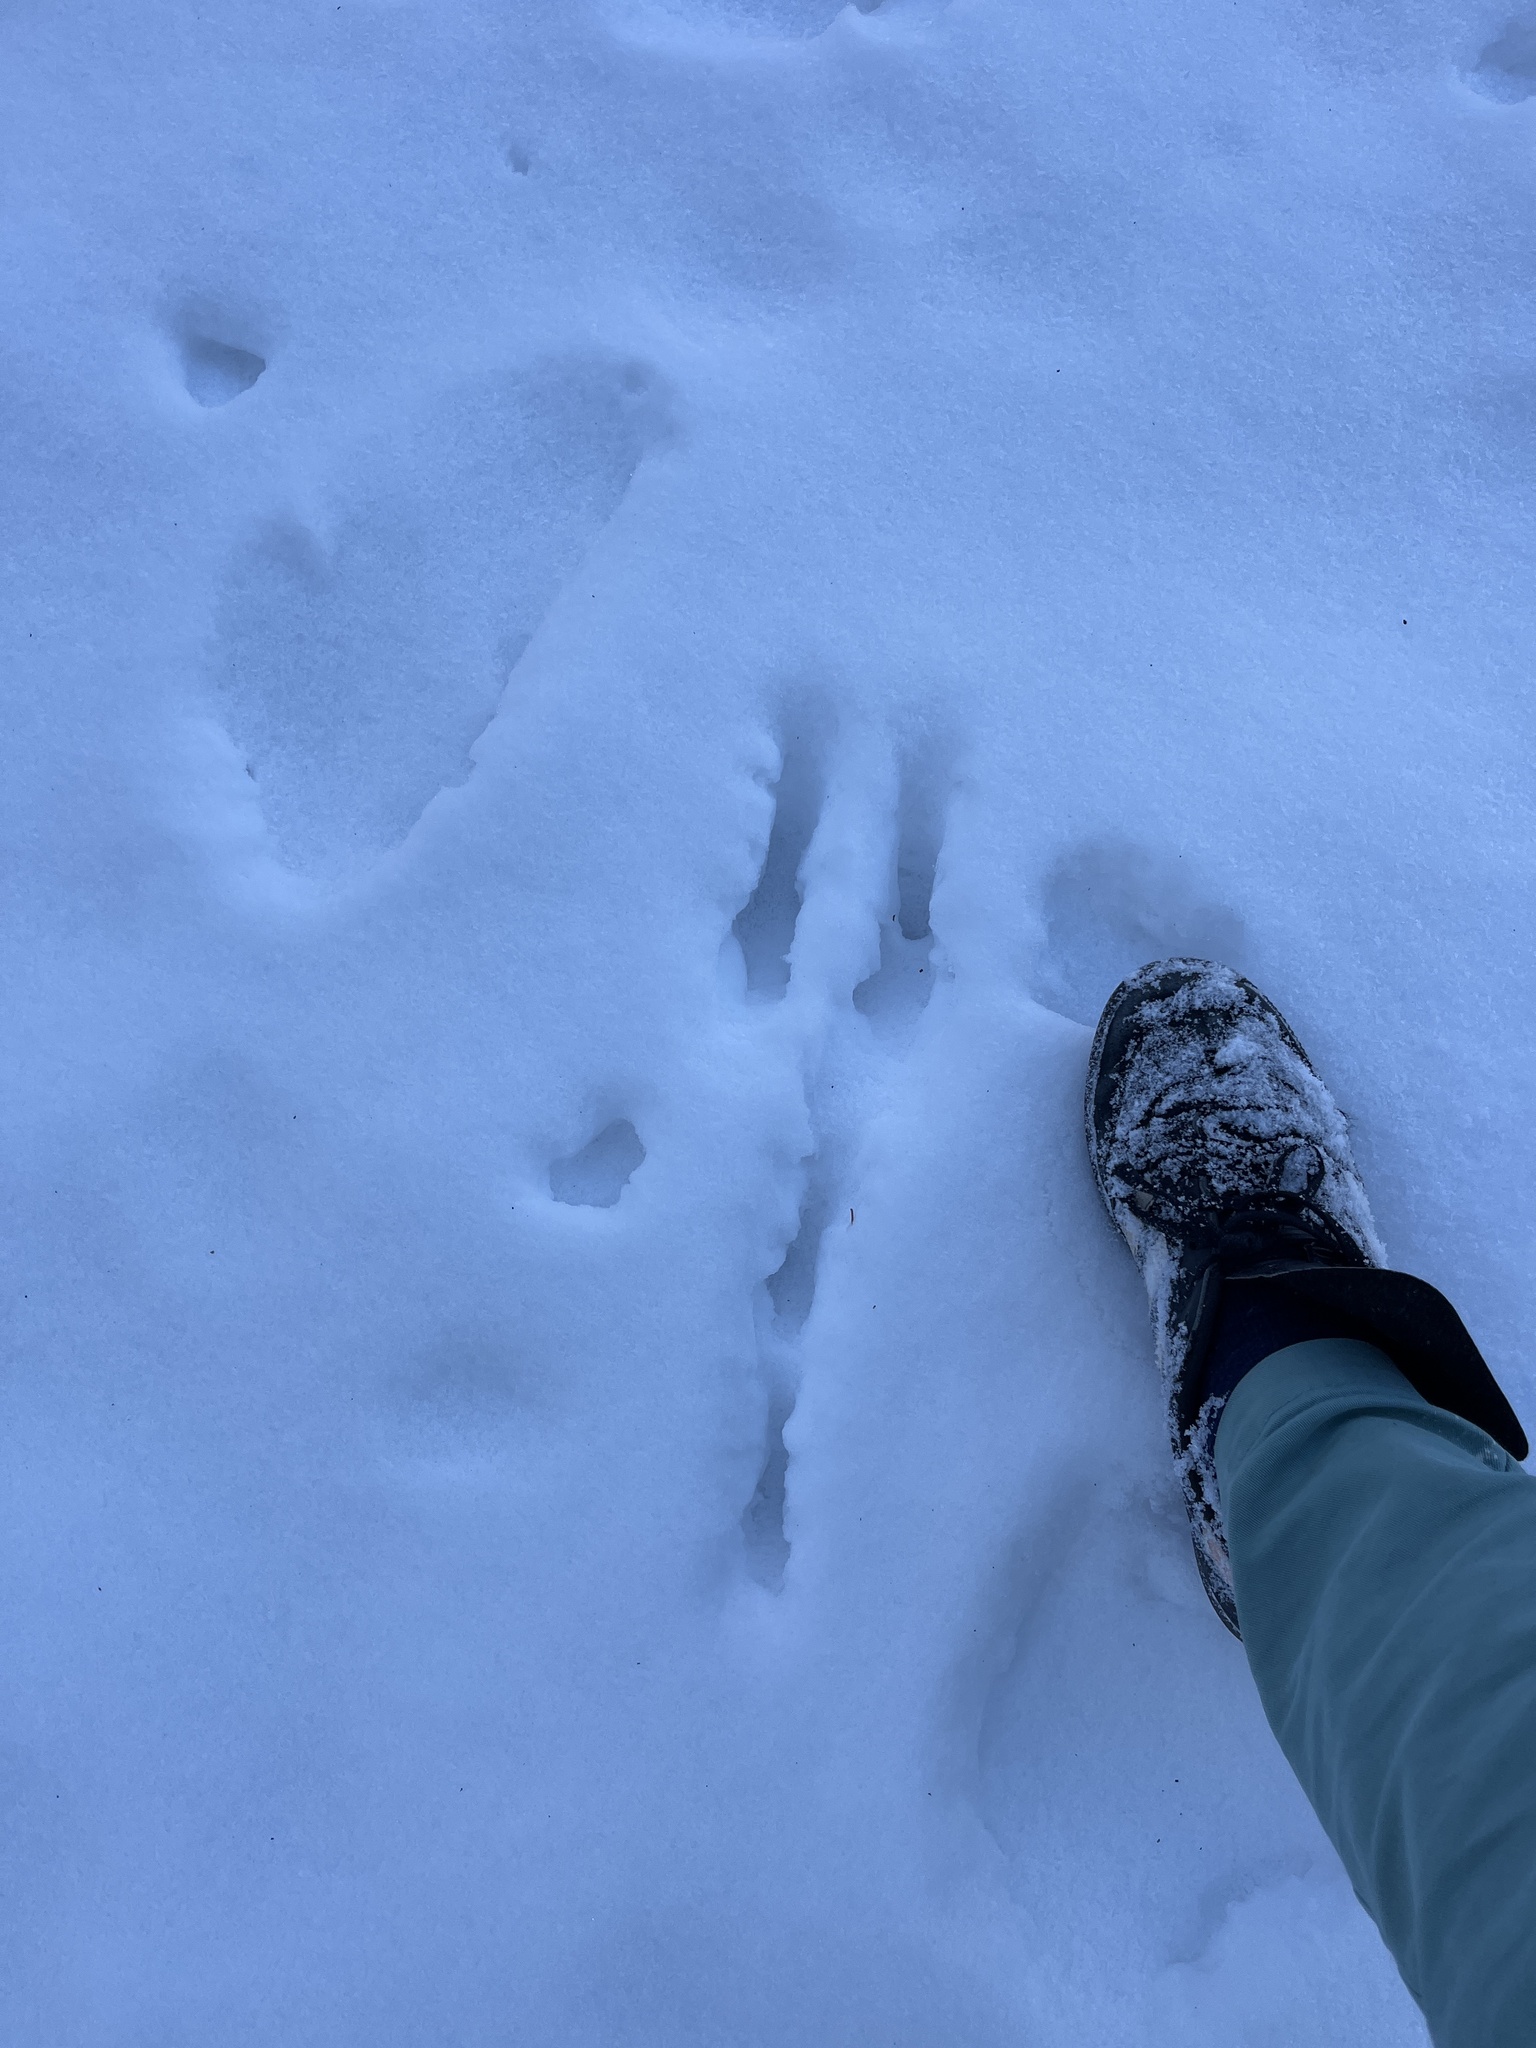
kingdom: Animalia
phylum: Chordata
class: Mammalia
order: Lagomorpha
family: Leporidae
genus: Sylvilagus
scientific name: Sylvilagus floridanus
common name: Eastern cottontail
